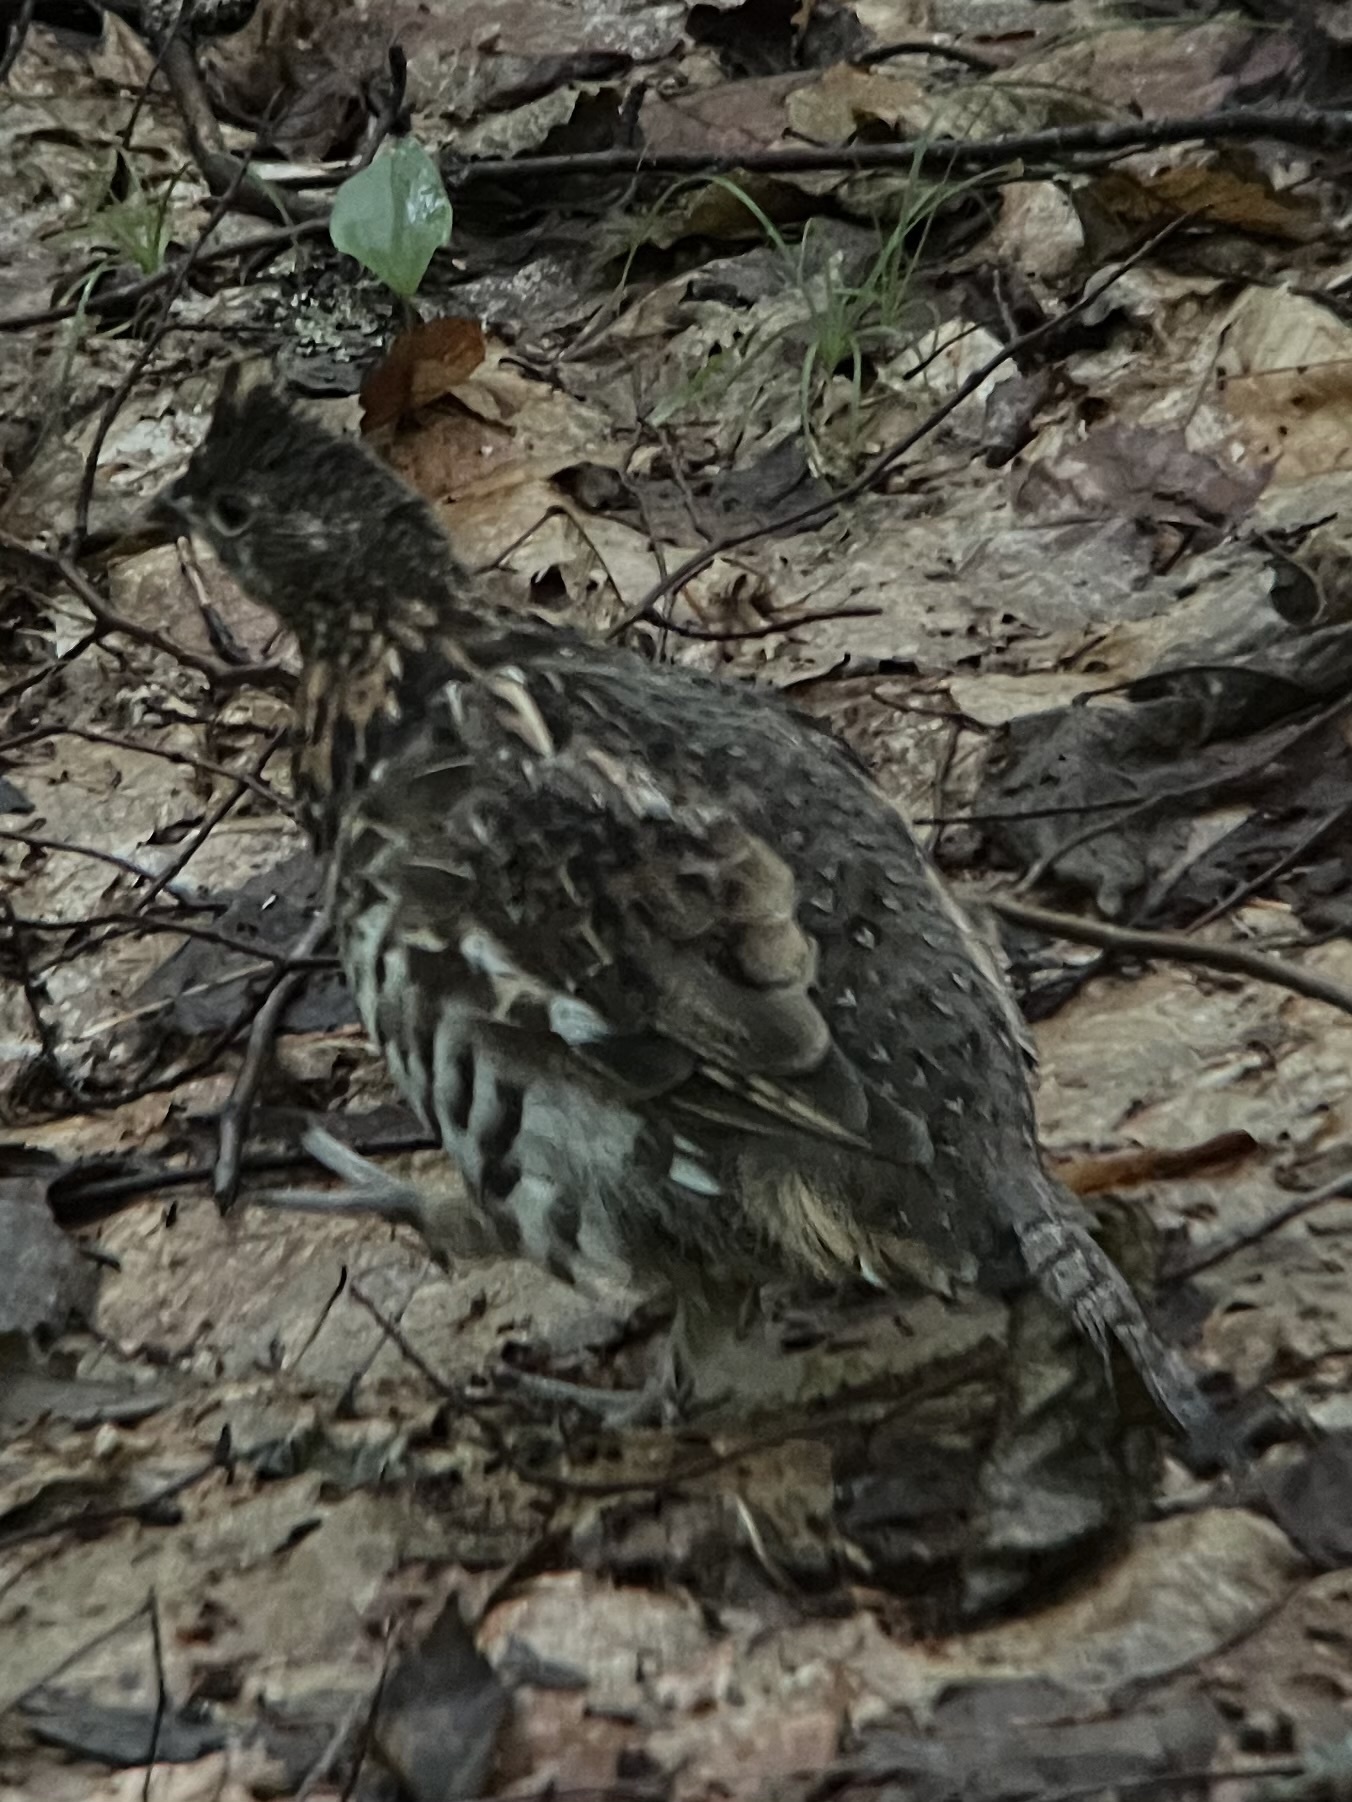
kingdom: Animalia
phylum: Chordata
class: Aves
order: Galliformes
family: Phasianidae
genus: Bonasa
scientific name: Bonasa umbellus
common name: Ruffed grouse
